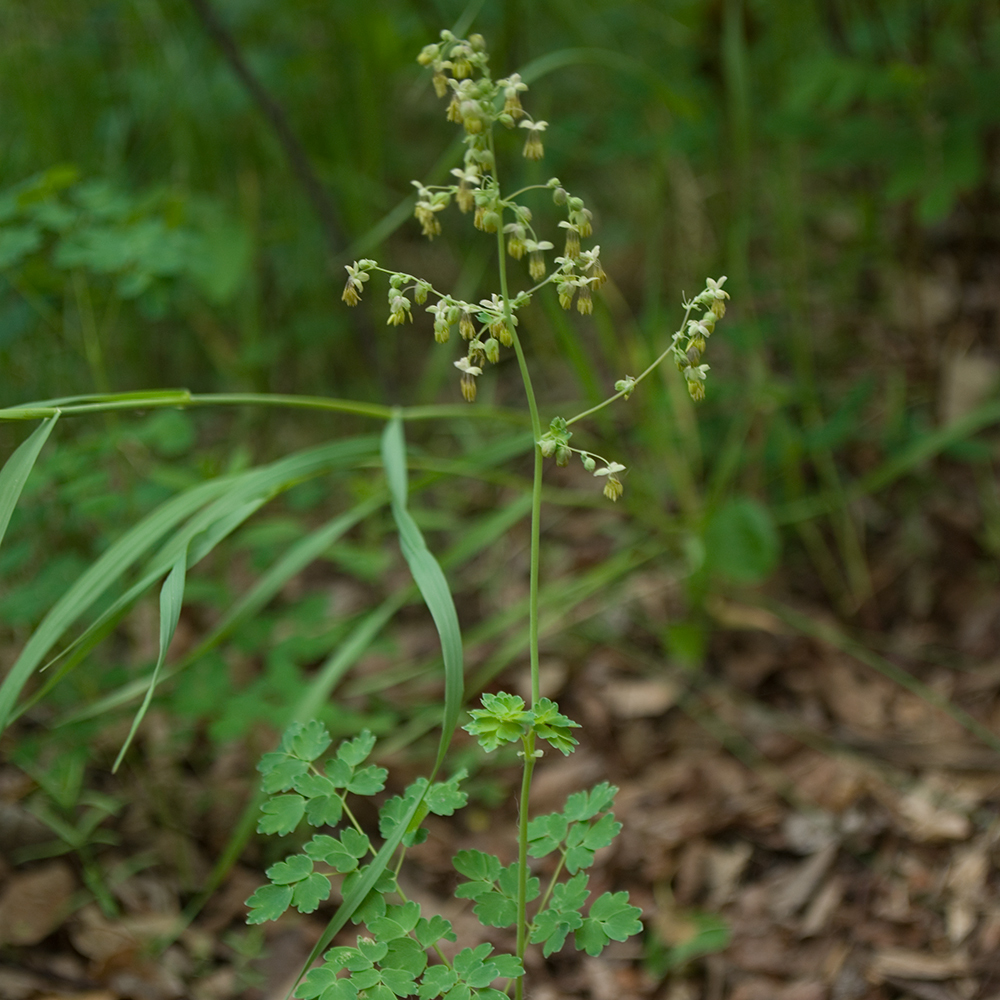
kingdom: Plantae
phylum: Tracheophyta
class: Magnoliopsida
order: Ranunculales
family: Ranunculaceae
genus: Thalictrum
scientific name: Thalictrum venulosum
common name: Early meadow-rue
